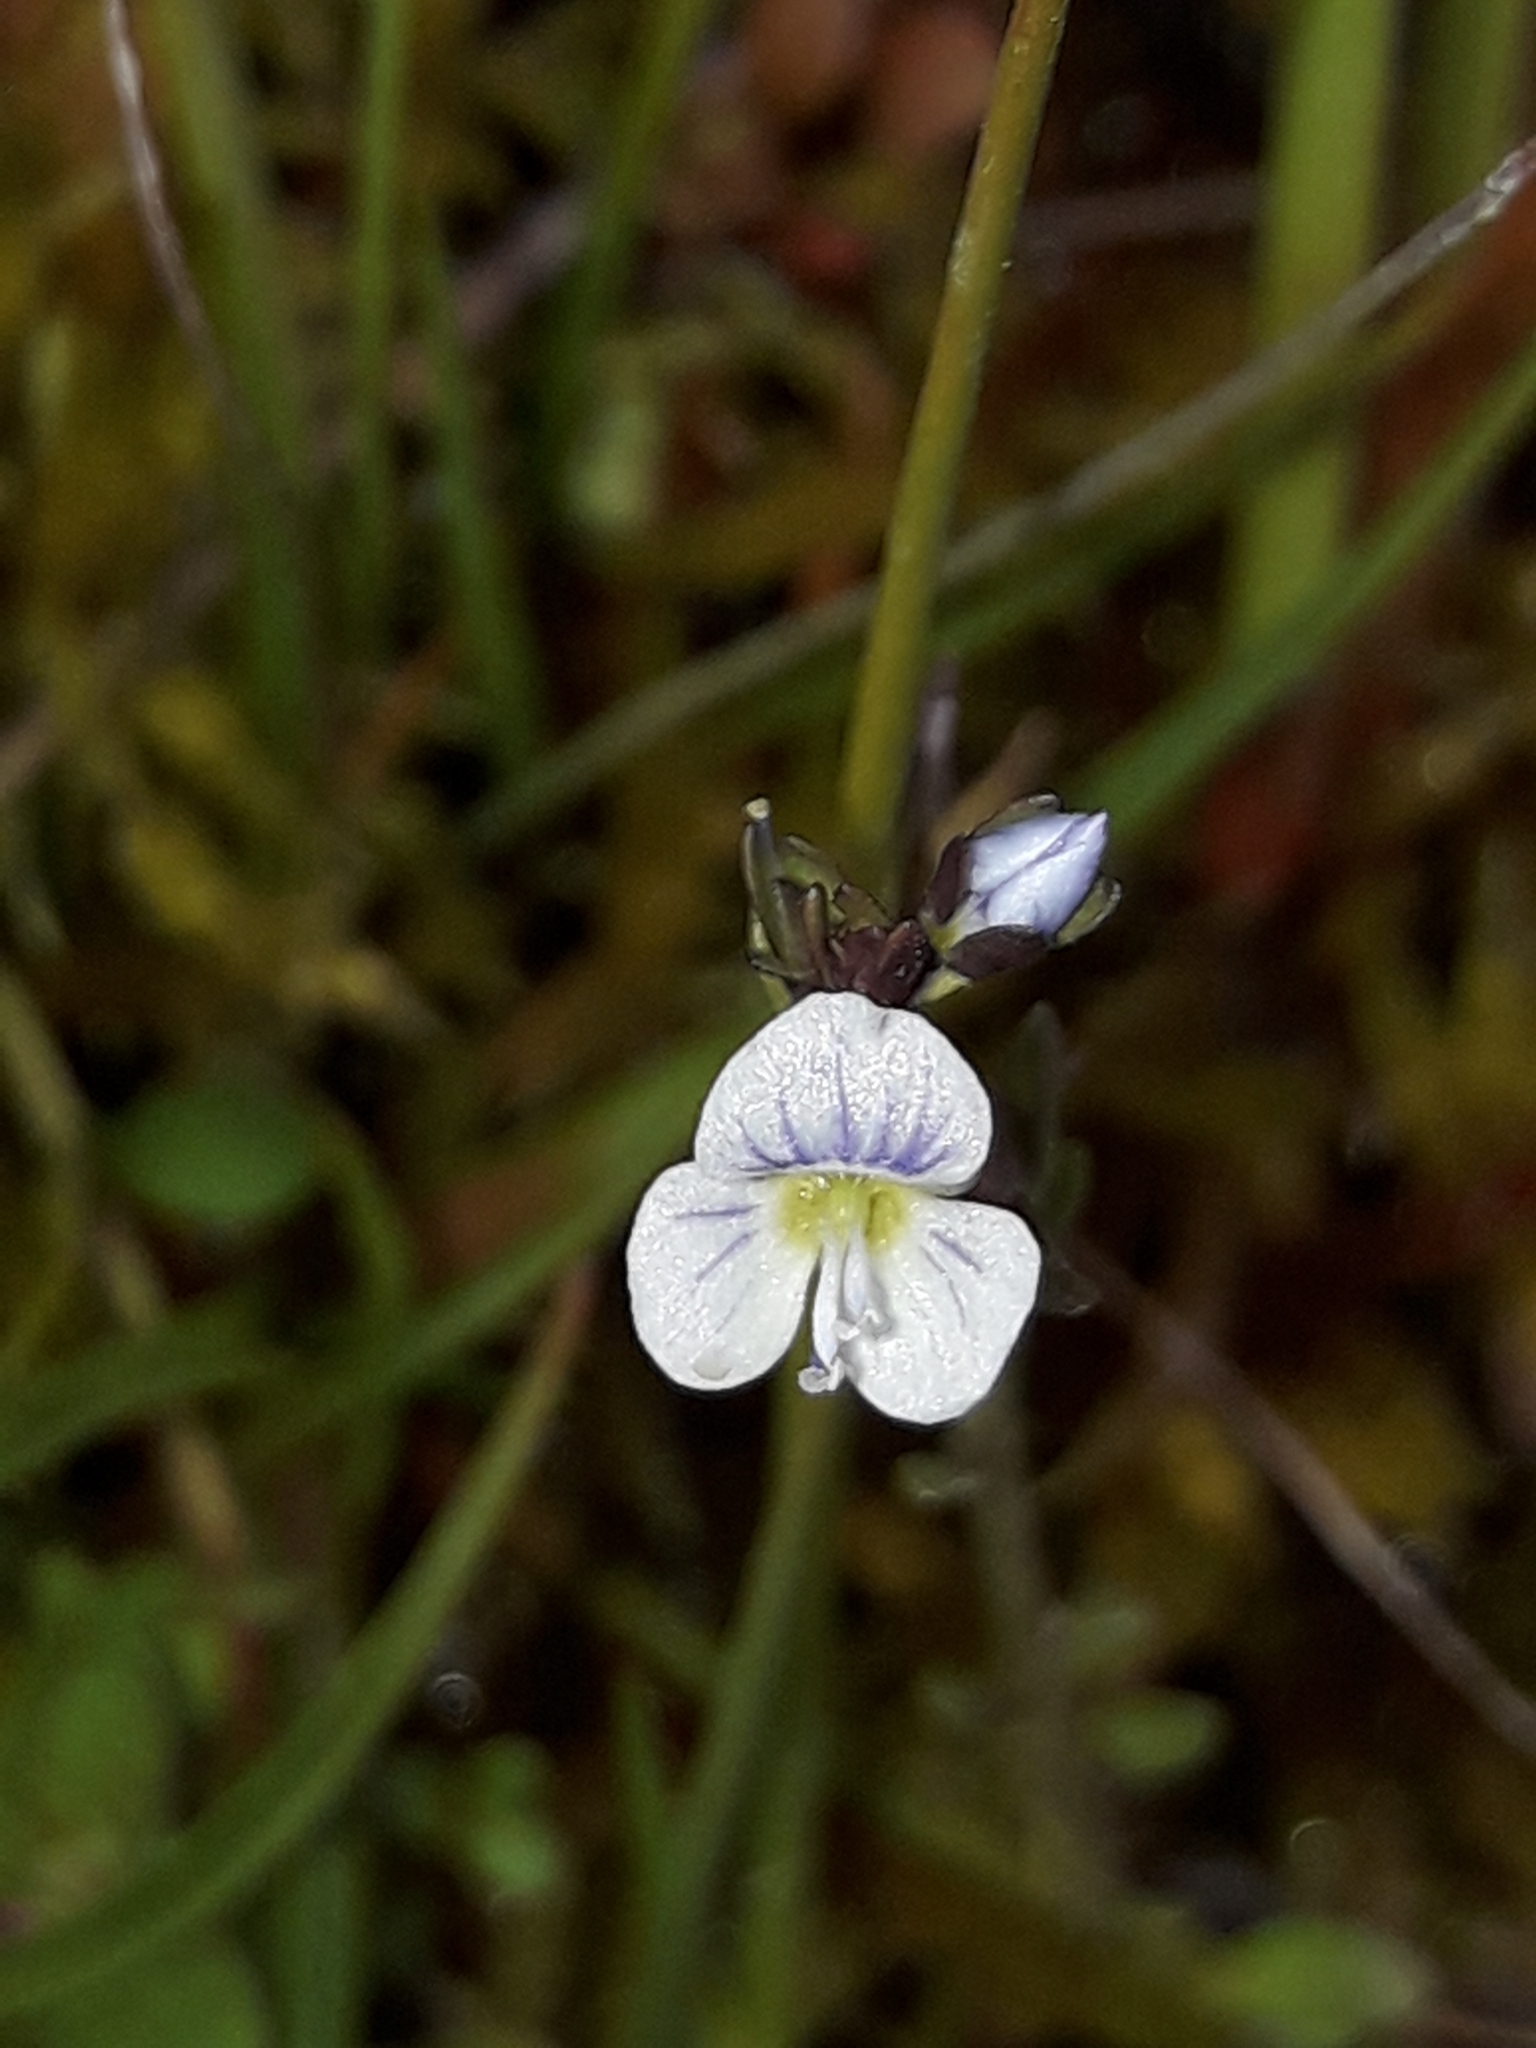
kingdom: Plantae
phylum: Tracheophyta
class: Magnoliopsida
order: Lamiales
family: Plantaginaceae
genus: Veronica
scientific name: Veronica serpyllifolia
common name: Thyme-leaved speedwell
